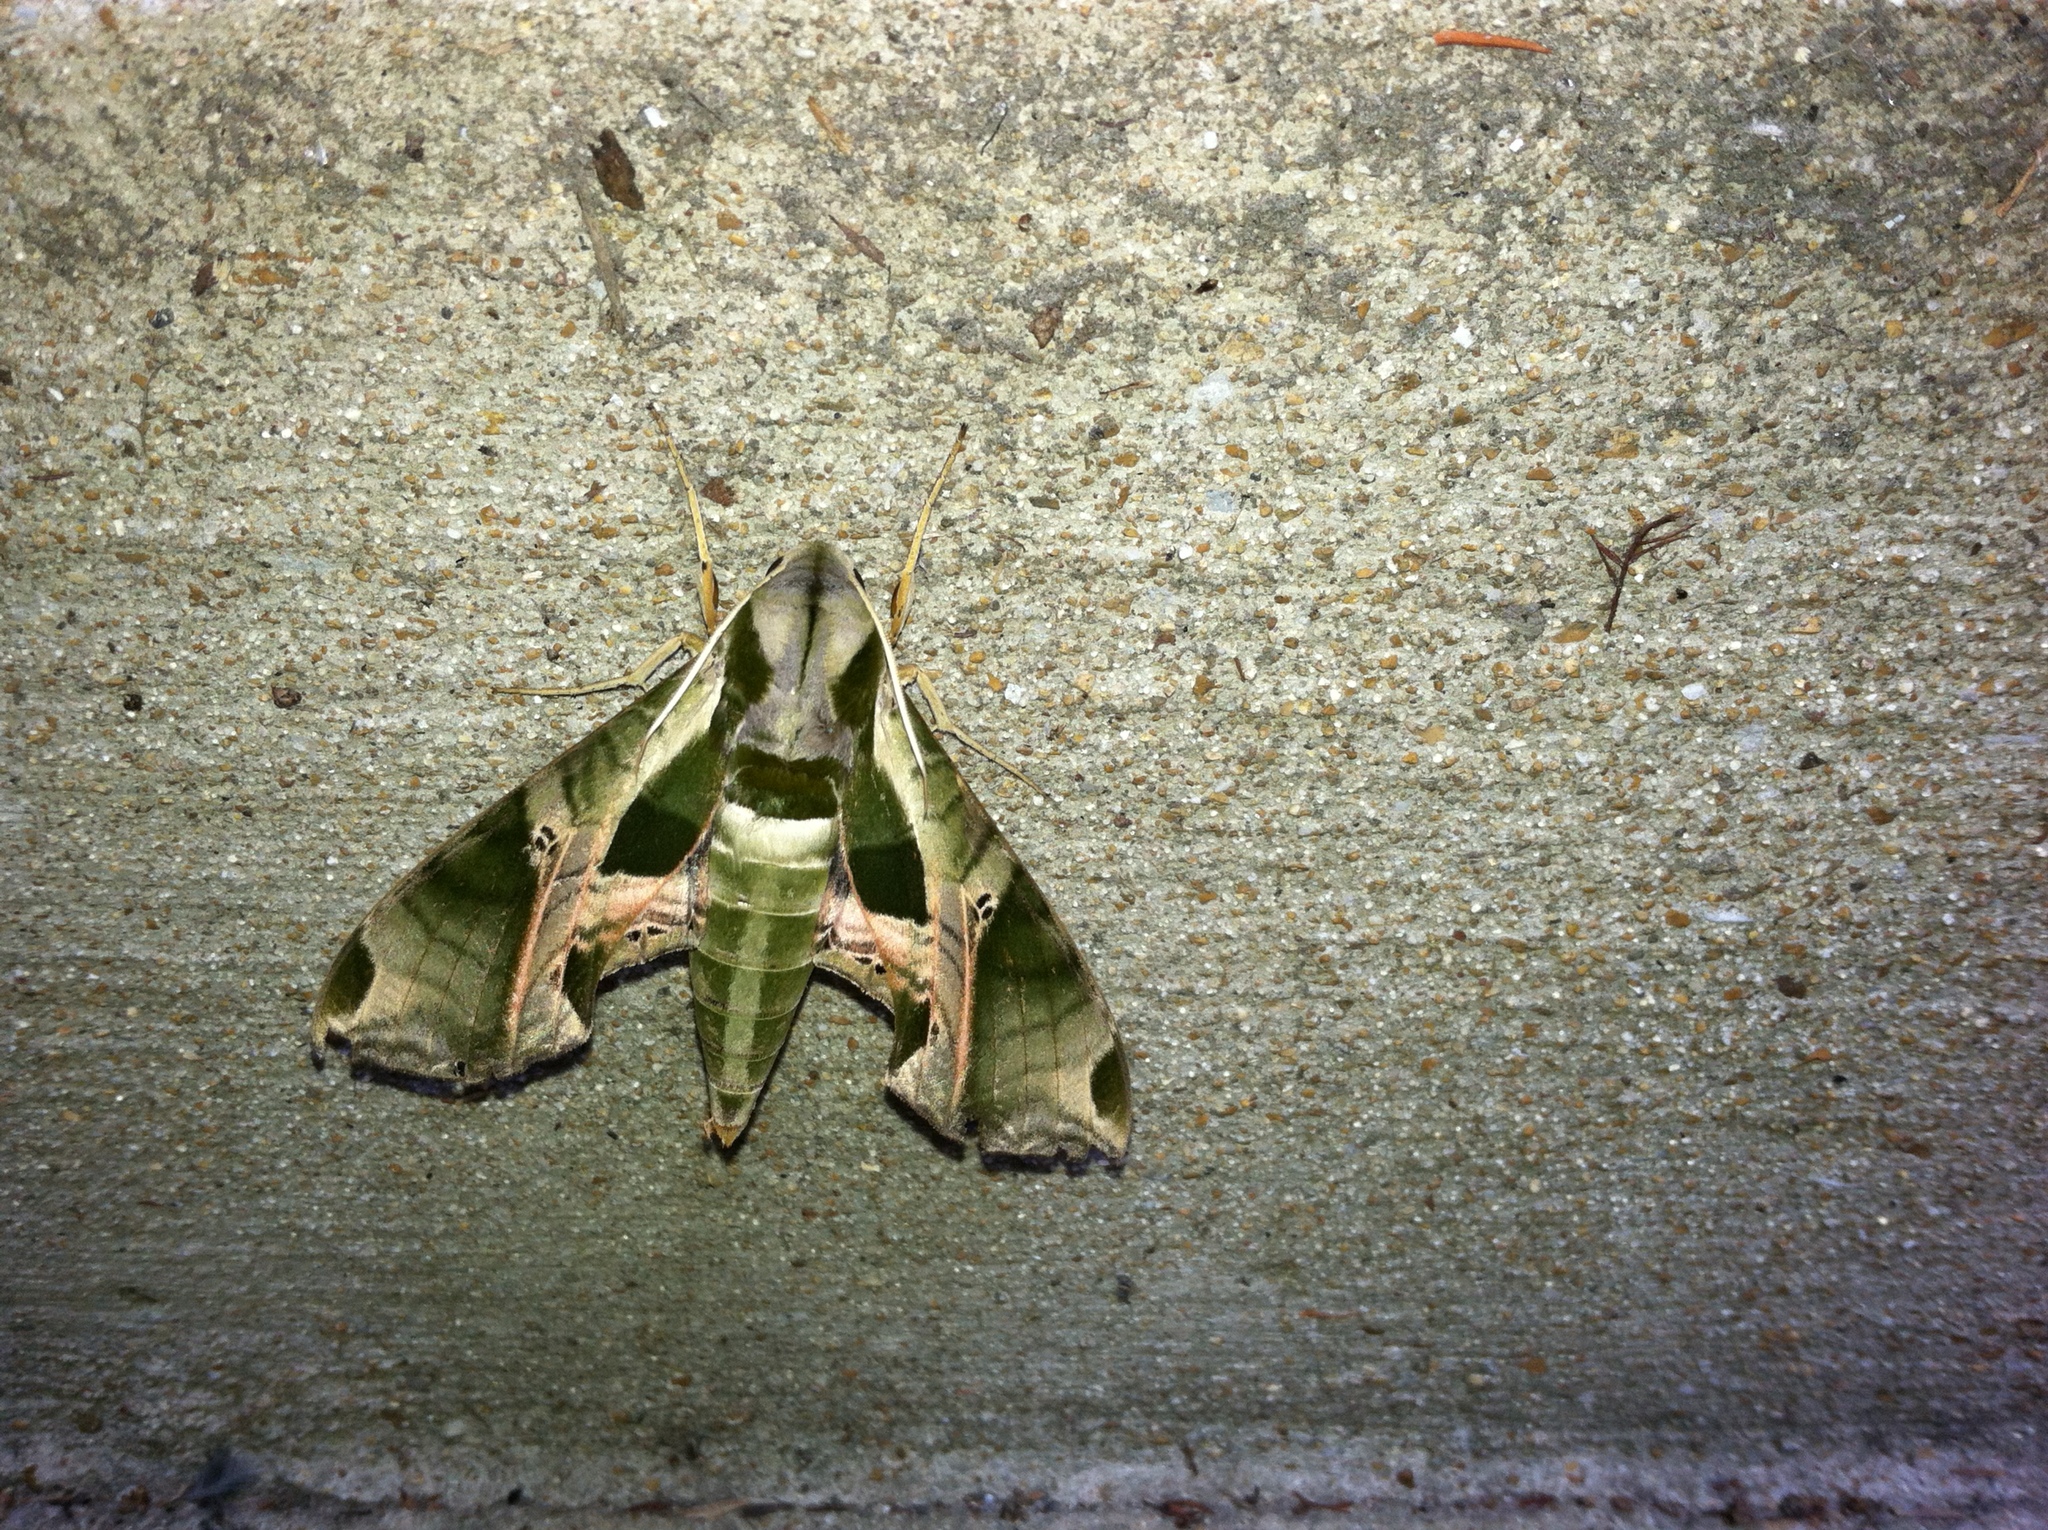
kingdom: Animalia
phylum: Arthropoda
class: Insecta
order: Lepidoptera
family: Sphingidae
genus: Eumorpha
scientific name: Eumorpha pandorus
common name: Pandora sphinx
